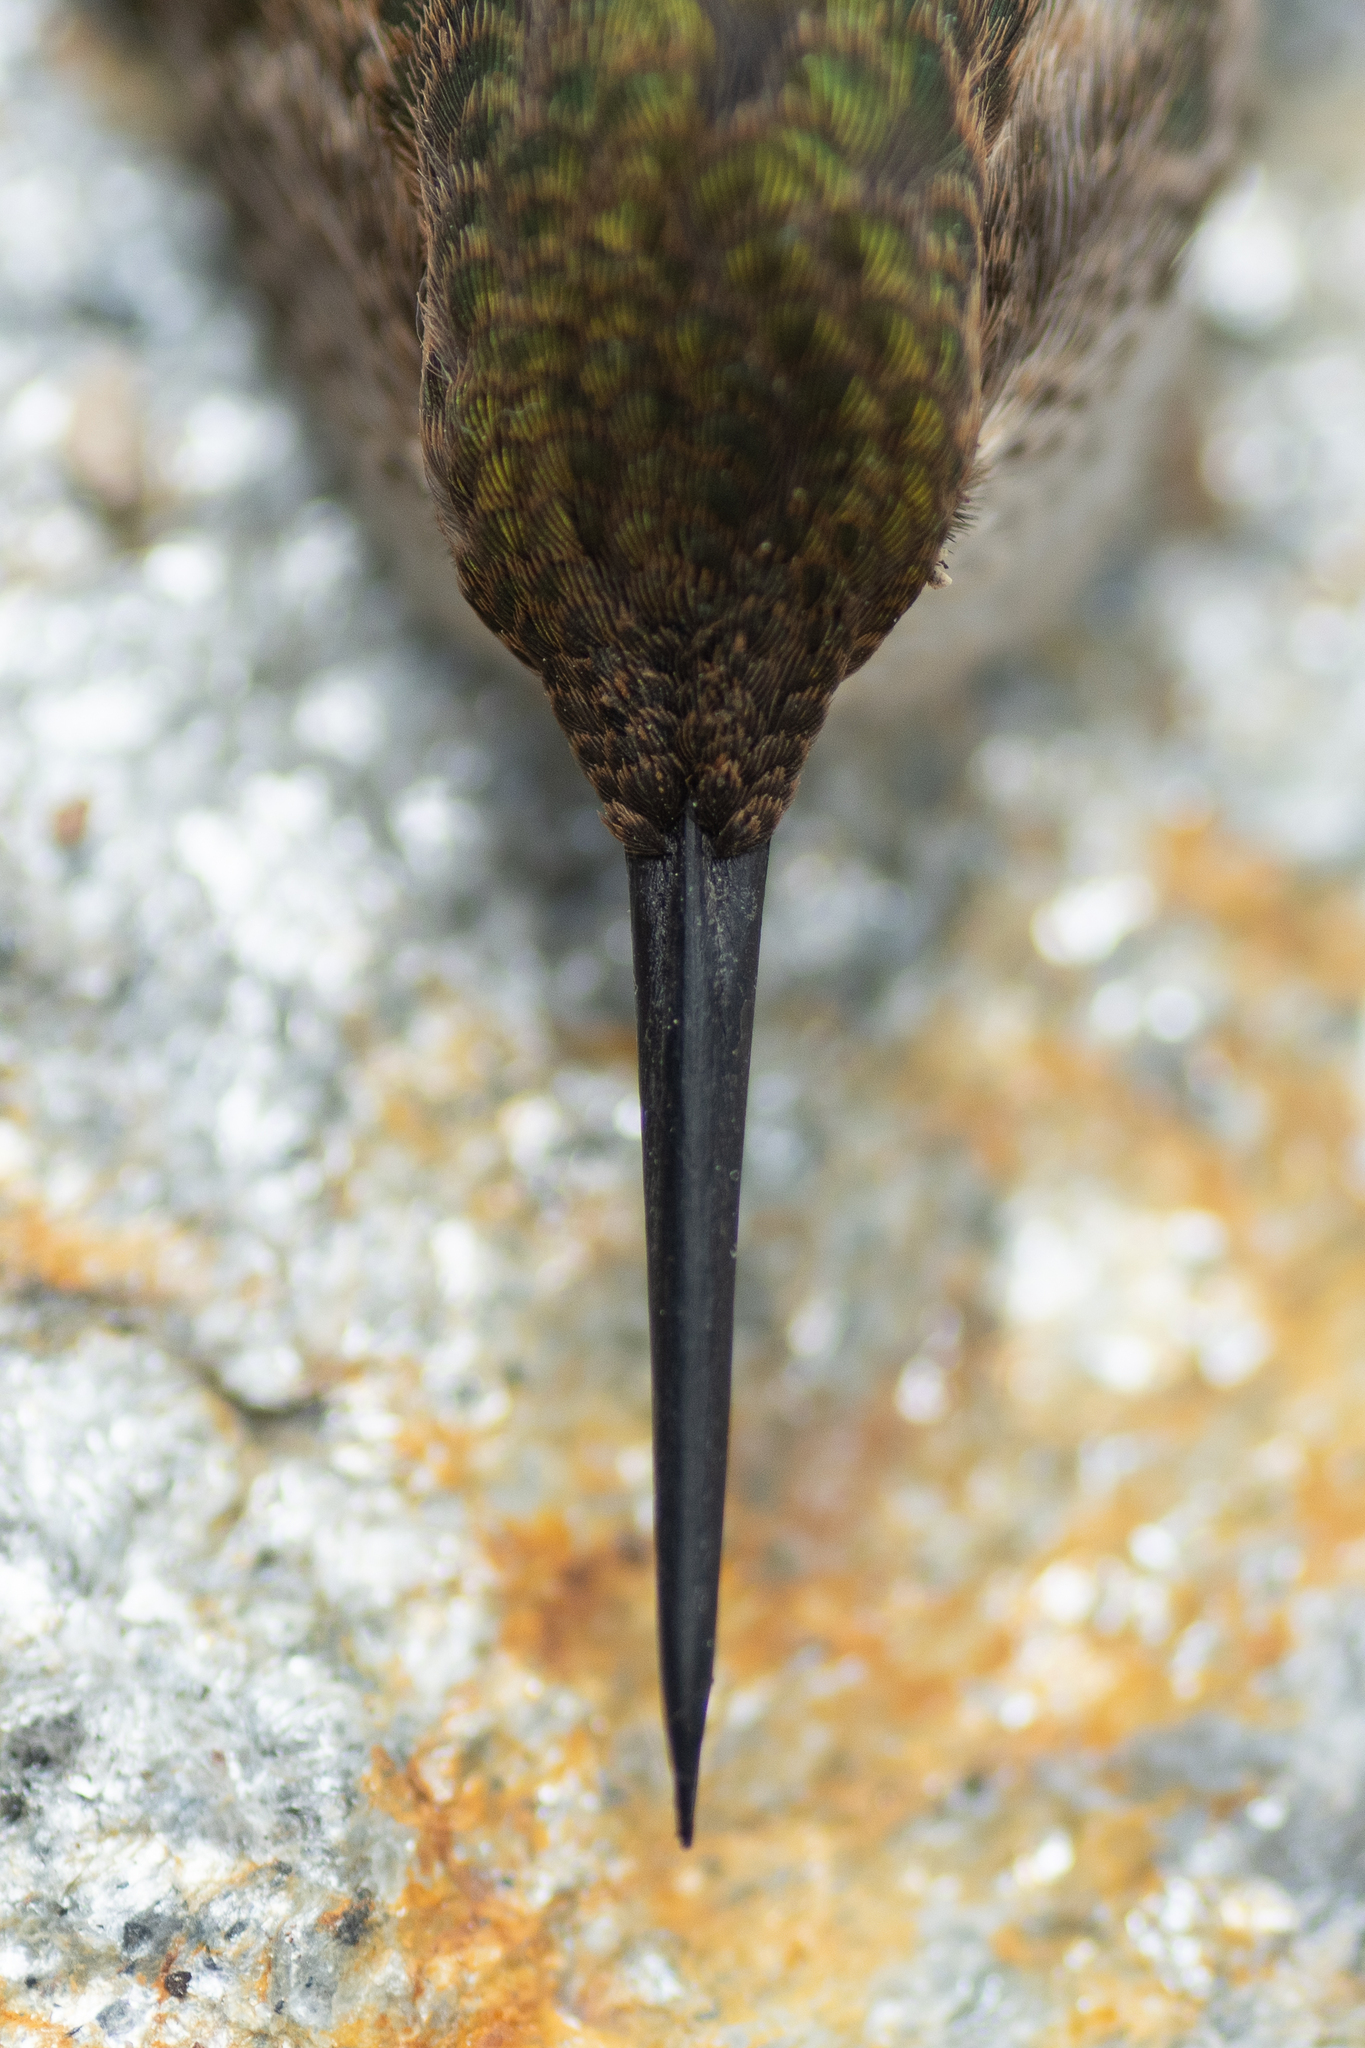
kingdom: Animalia
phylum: Chordata
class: Aves
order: Apodiformes
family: Trochilidae
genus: Selasphorus
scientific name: Selasphorus rufus
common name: Rufous hummingbird
